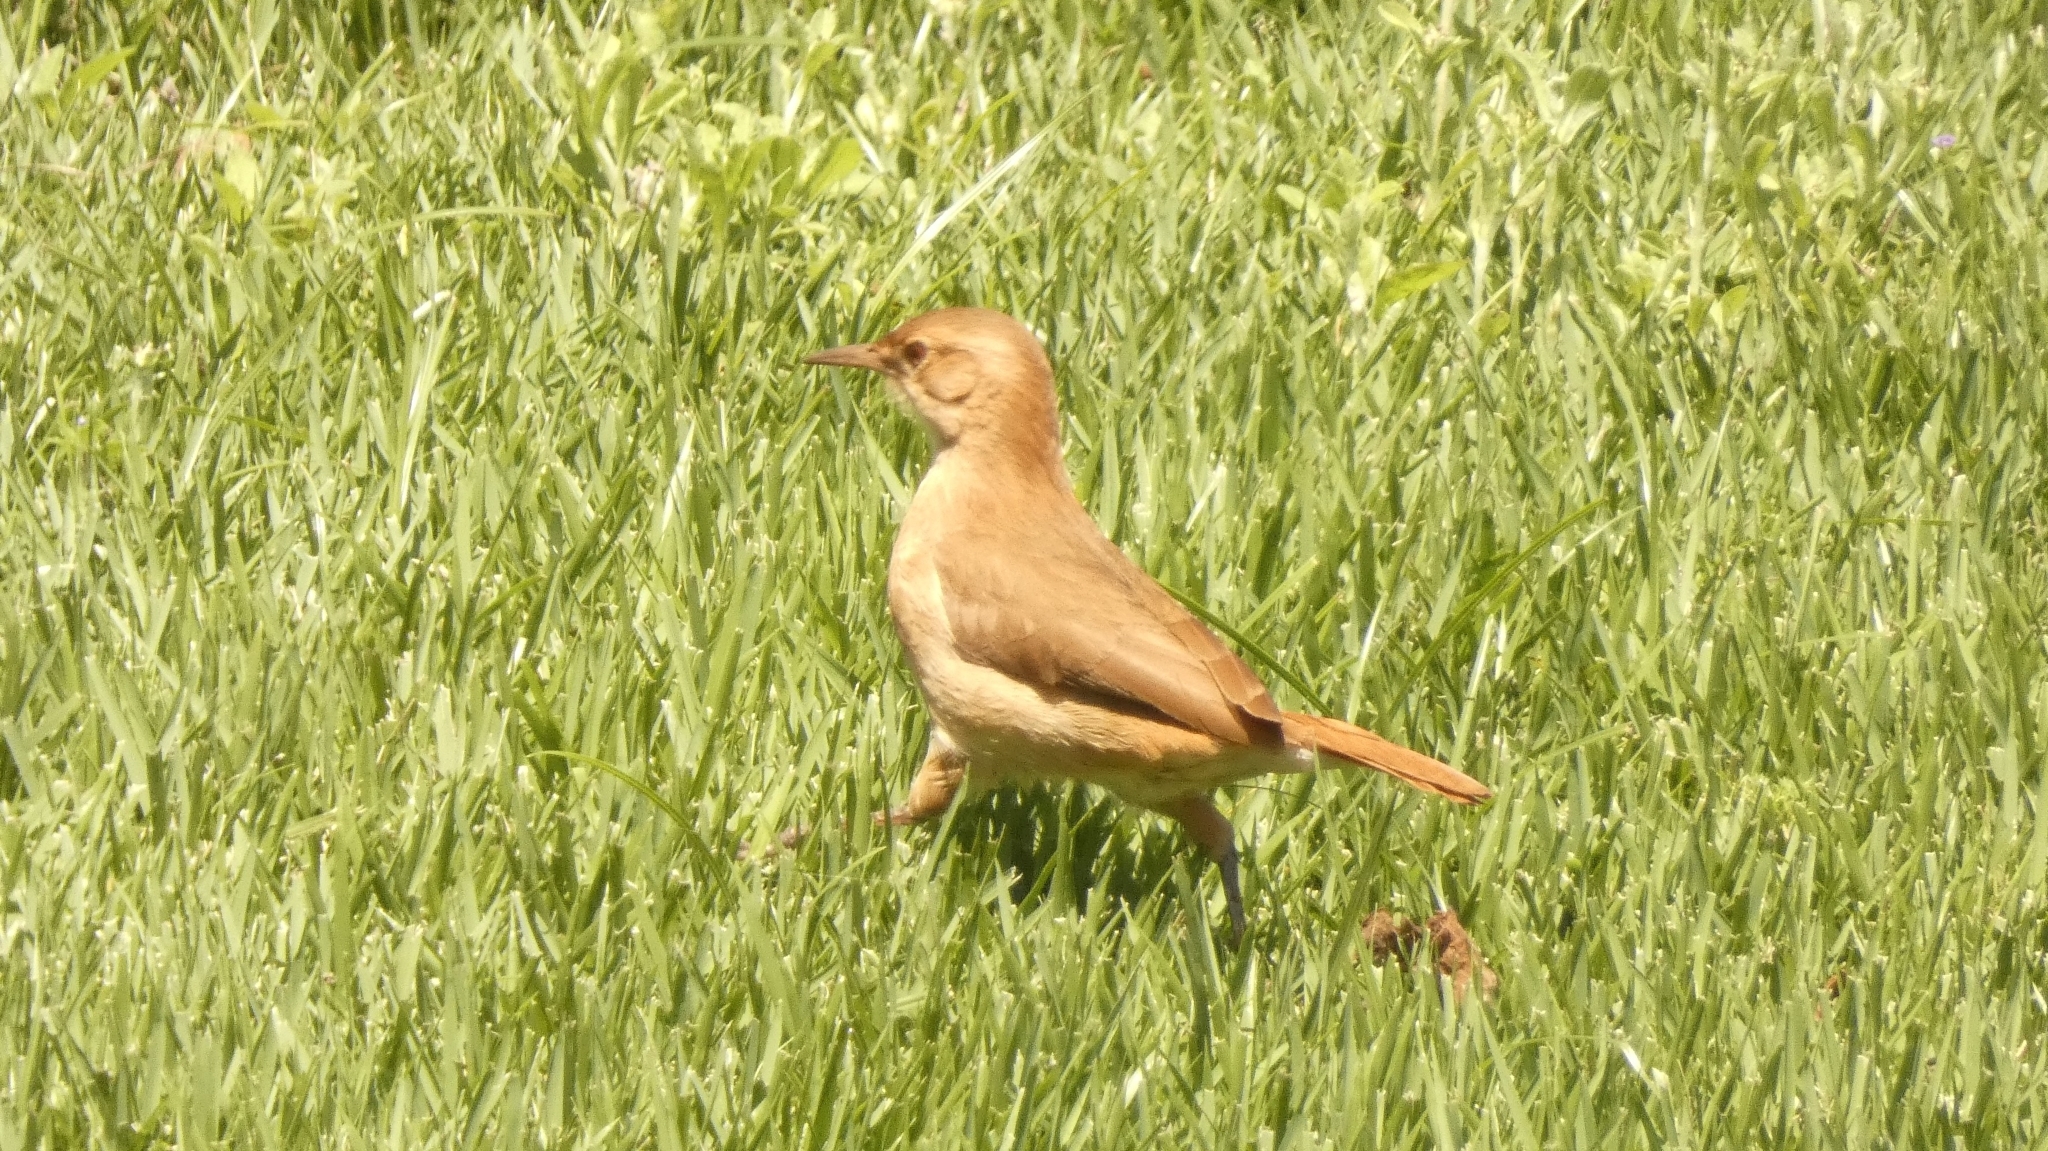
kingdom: Animalia
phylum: Chordata
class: Aves
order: Passeriformes
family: Furnariidae
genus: Furnarius
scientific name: Furnarius rufus
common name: Rufous hornero
